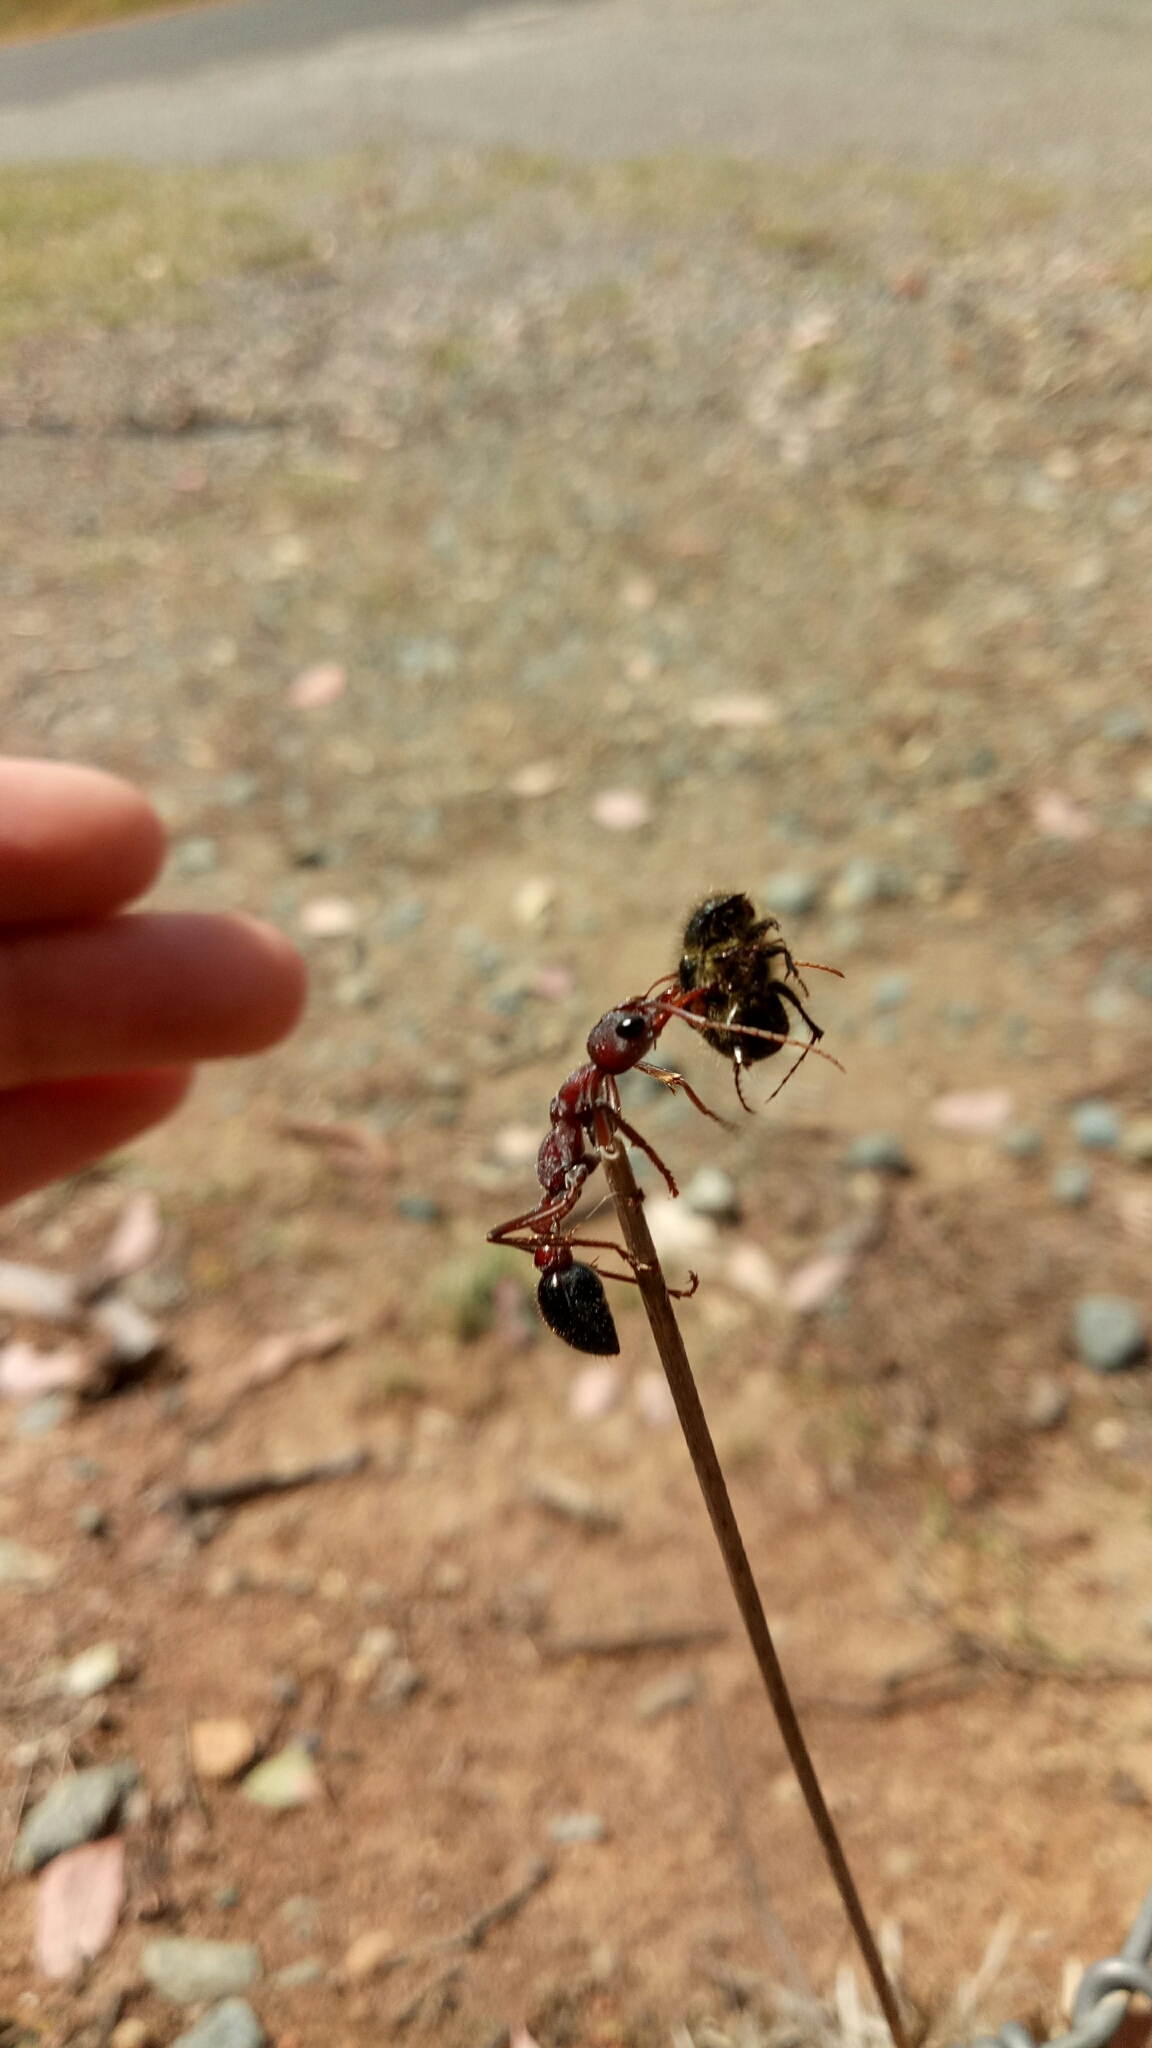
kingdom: Animalia
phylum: Arthropoda
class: Insecta
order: Hymenoptera
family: Formicidae
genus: Myrmecia
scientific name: Myrmecia simillima
